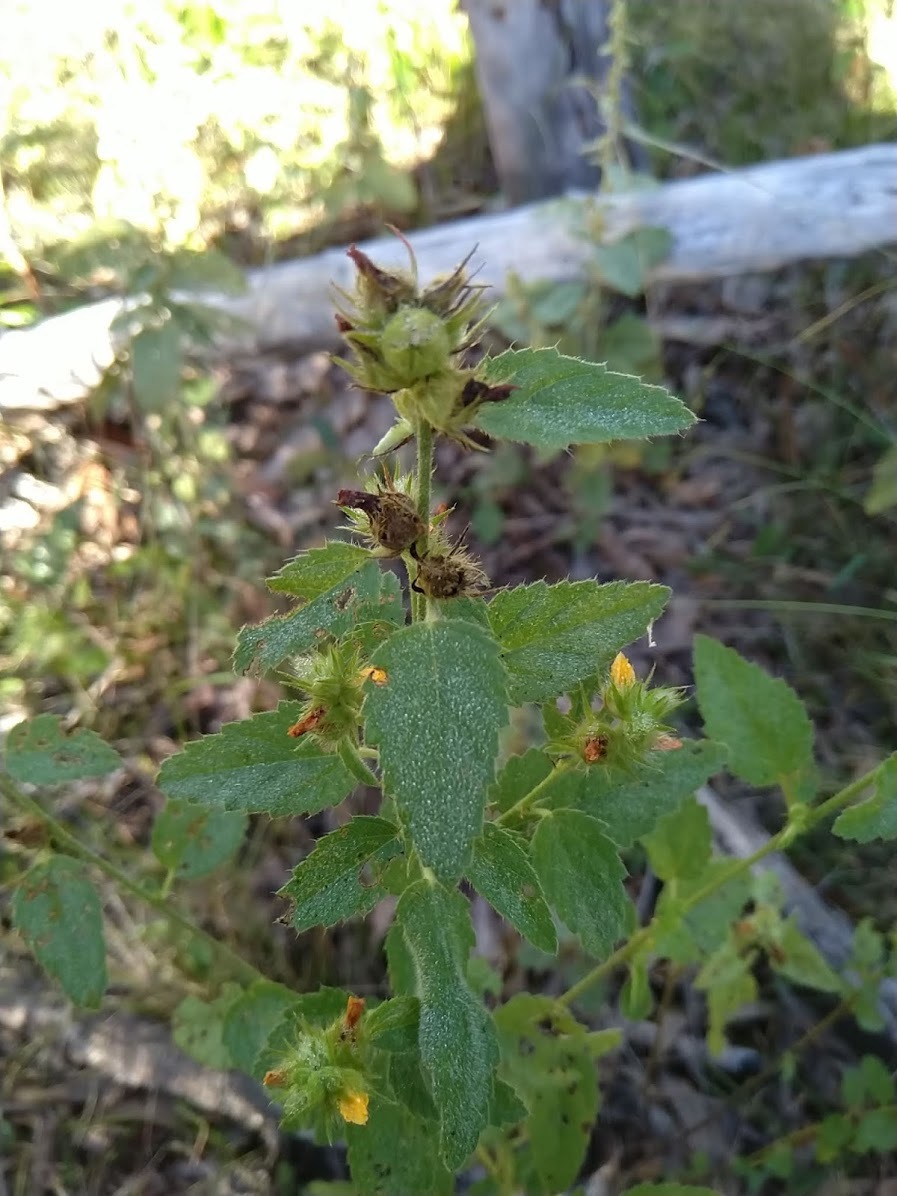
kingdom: Plantae
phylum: Tracheophyta
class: Magnoliopsida
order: Malvales
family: Malvaceae
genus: Malvastrum
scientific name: Malvastrum americanum
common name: Spiked malvastrum
